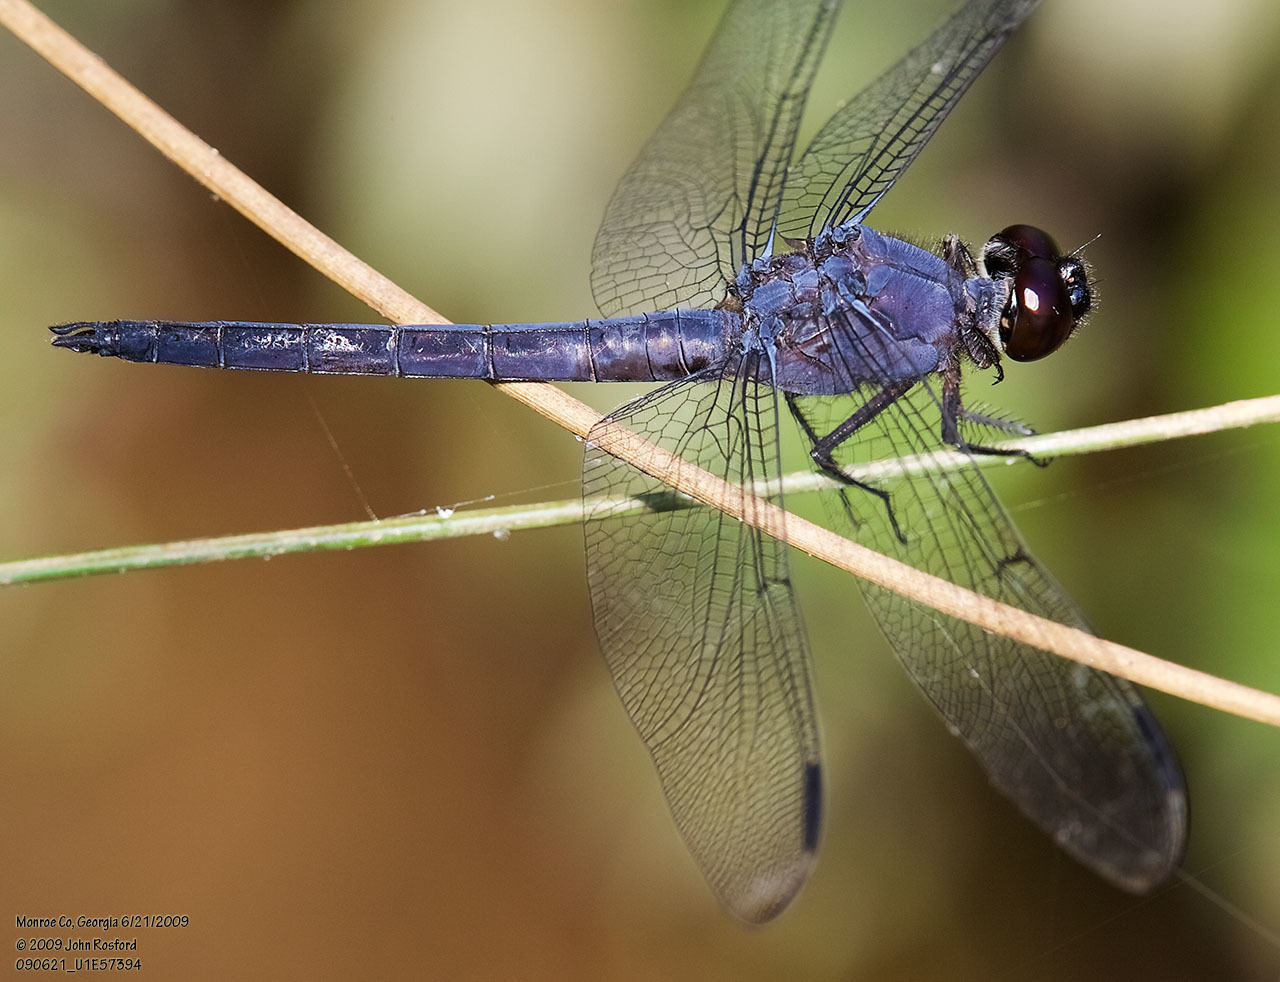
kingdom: Animalia
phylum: Arthropoda
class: Insecta
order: Odonata
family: Libellulidae
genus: Libellula
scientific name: Libellula incesta
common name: Slaty skimmer
